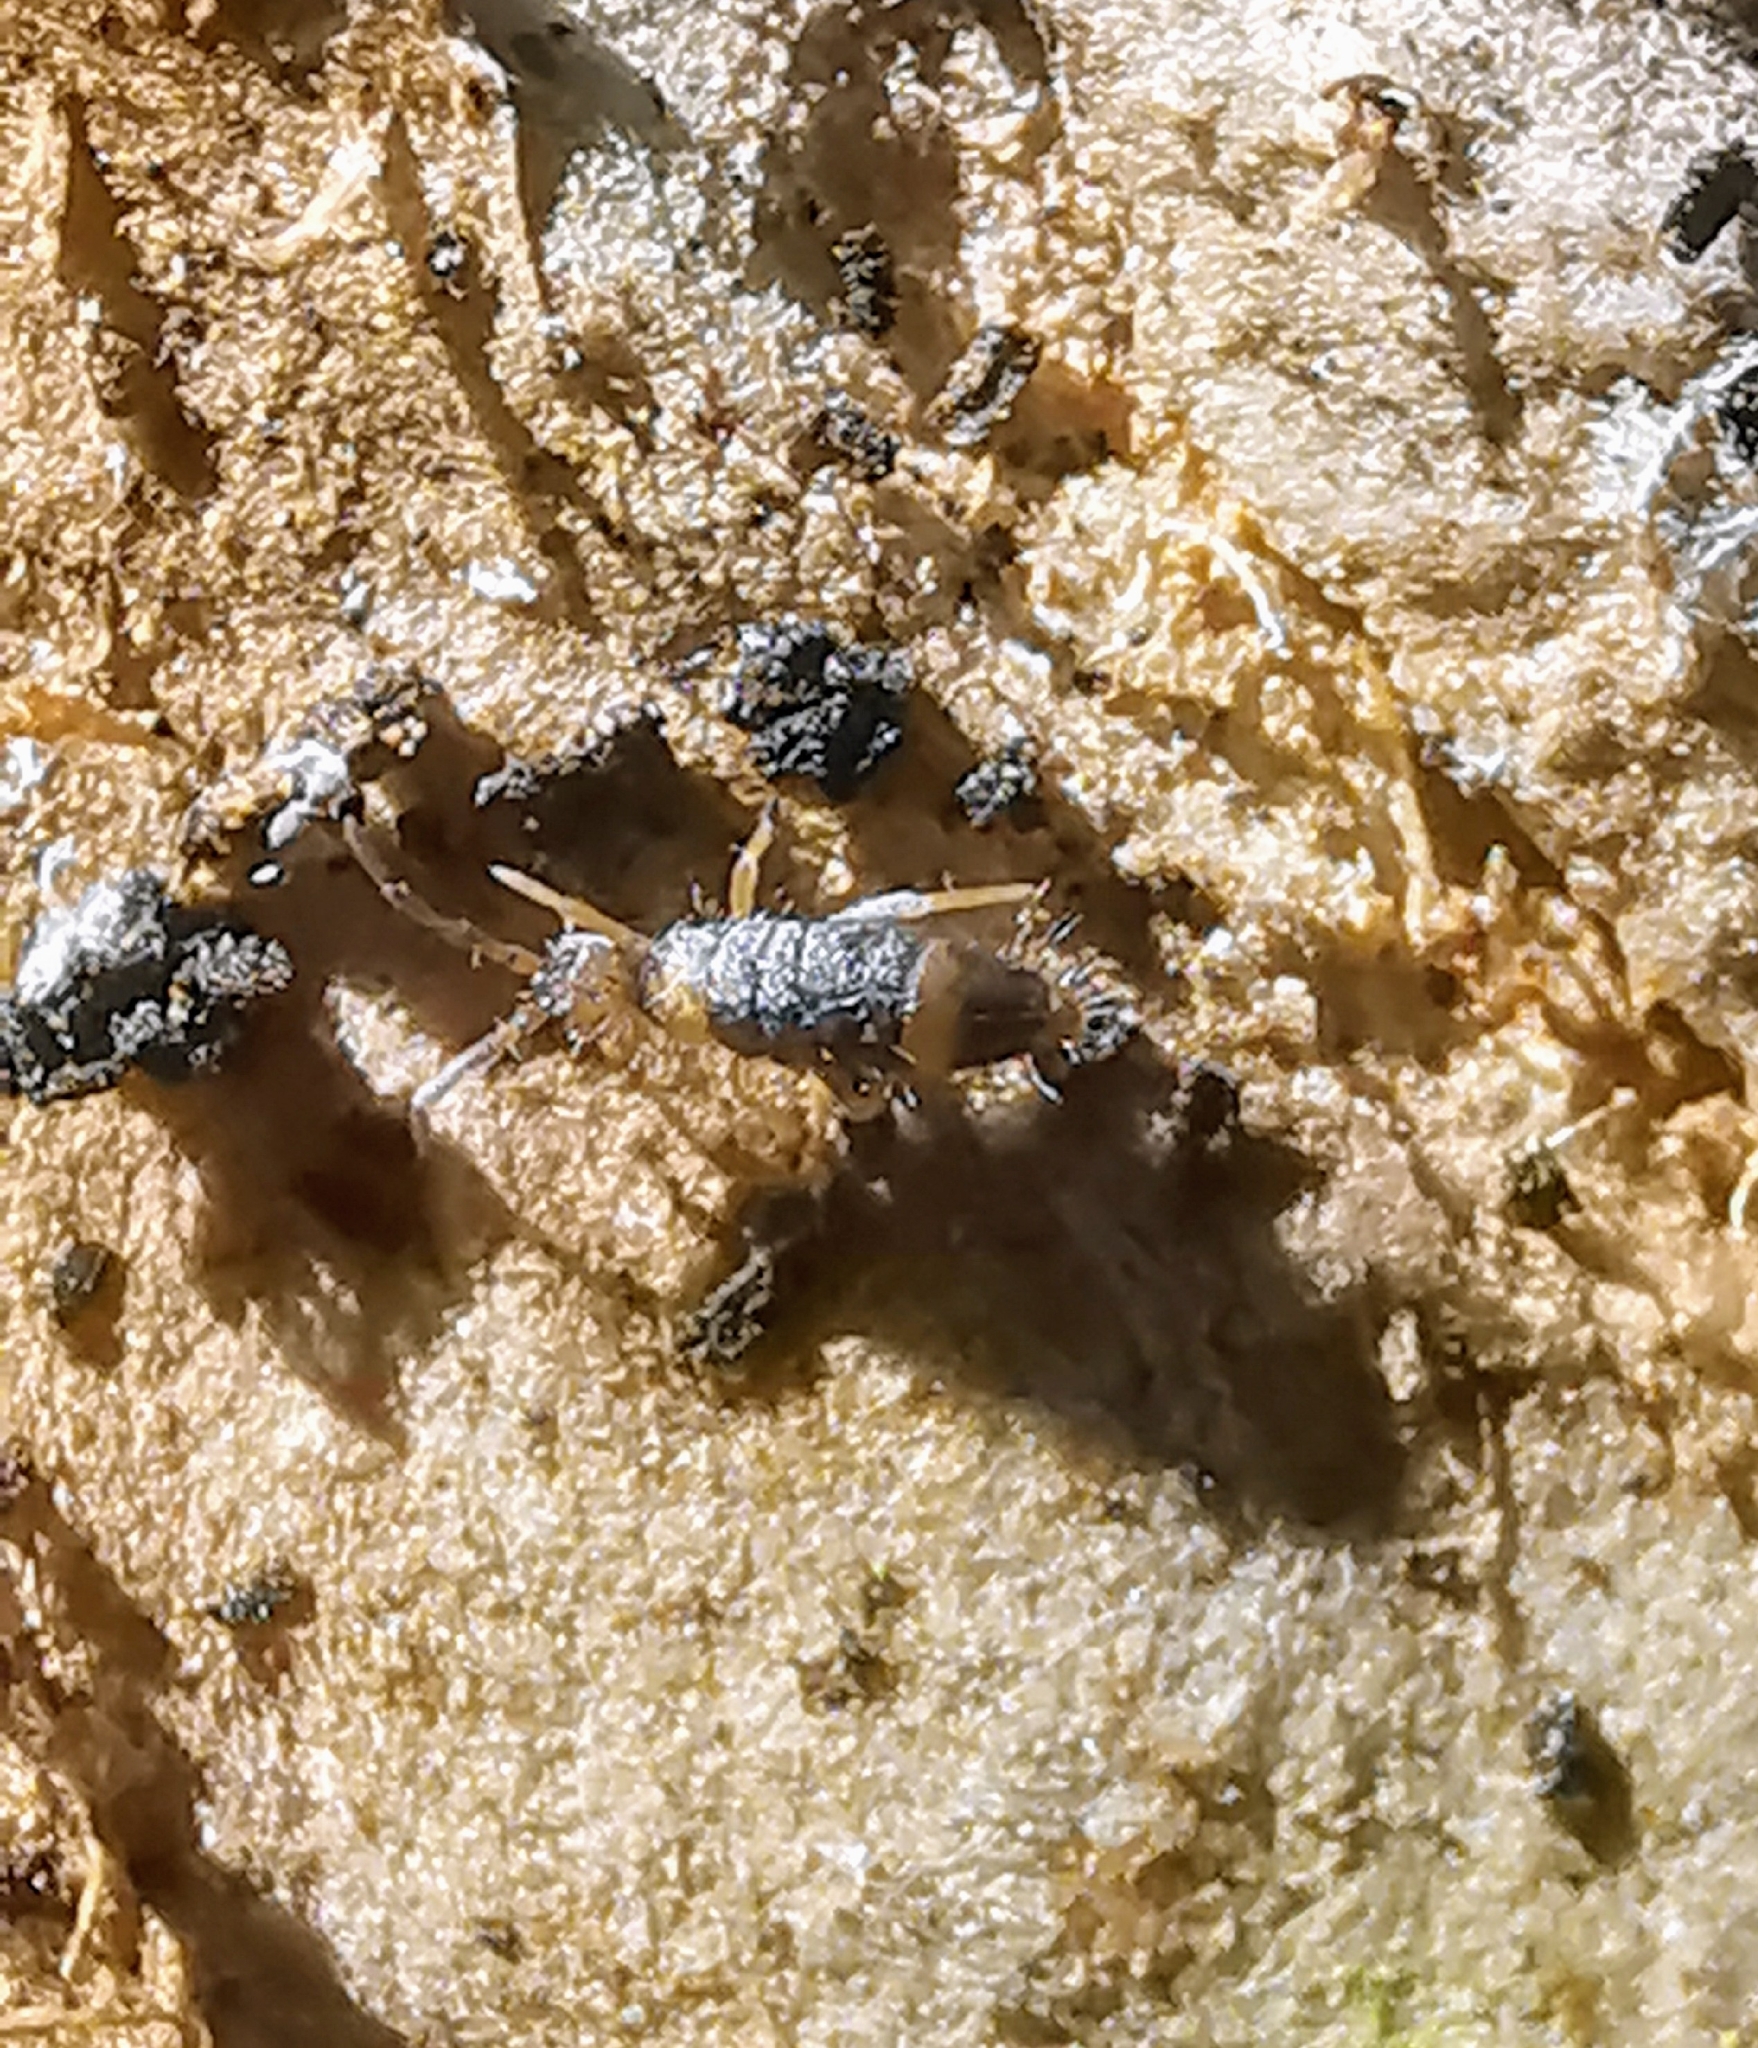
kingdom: Animalia
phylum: Arthropoda
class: Collembola
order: Entomobryomorpha
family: Entomobryidae
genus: Entomobrya
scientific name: Entomobrya albocincta
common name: Springtail
